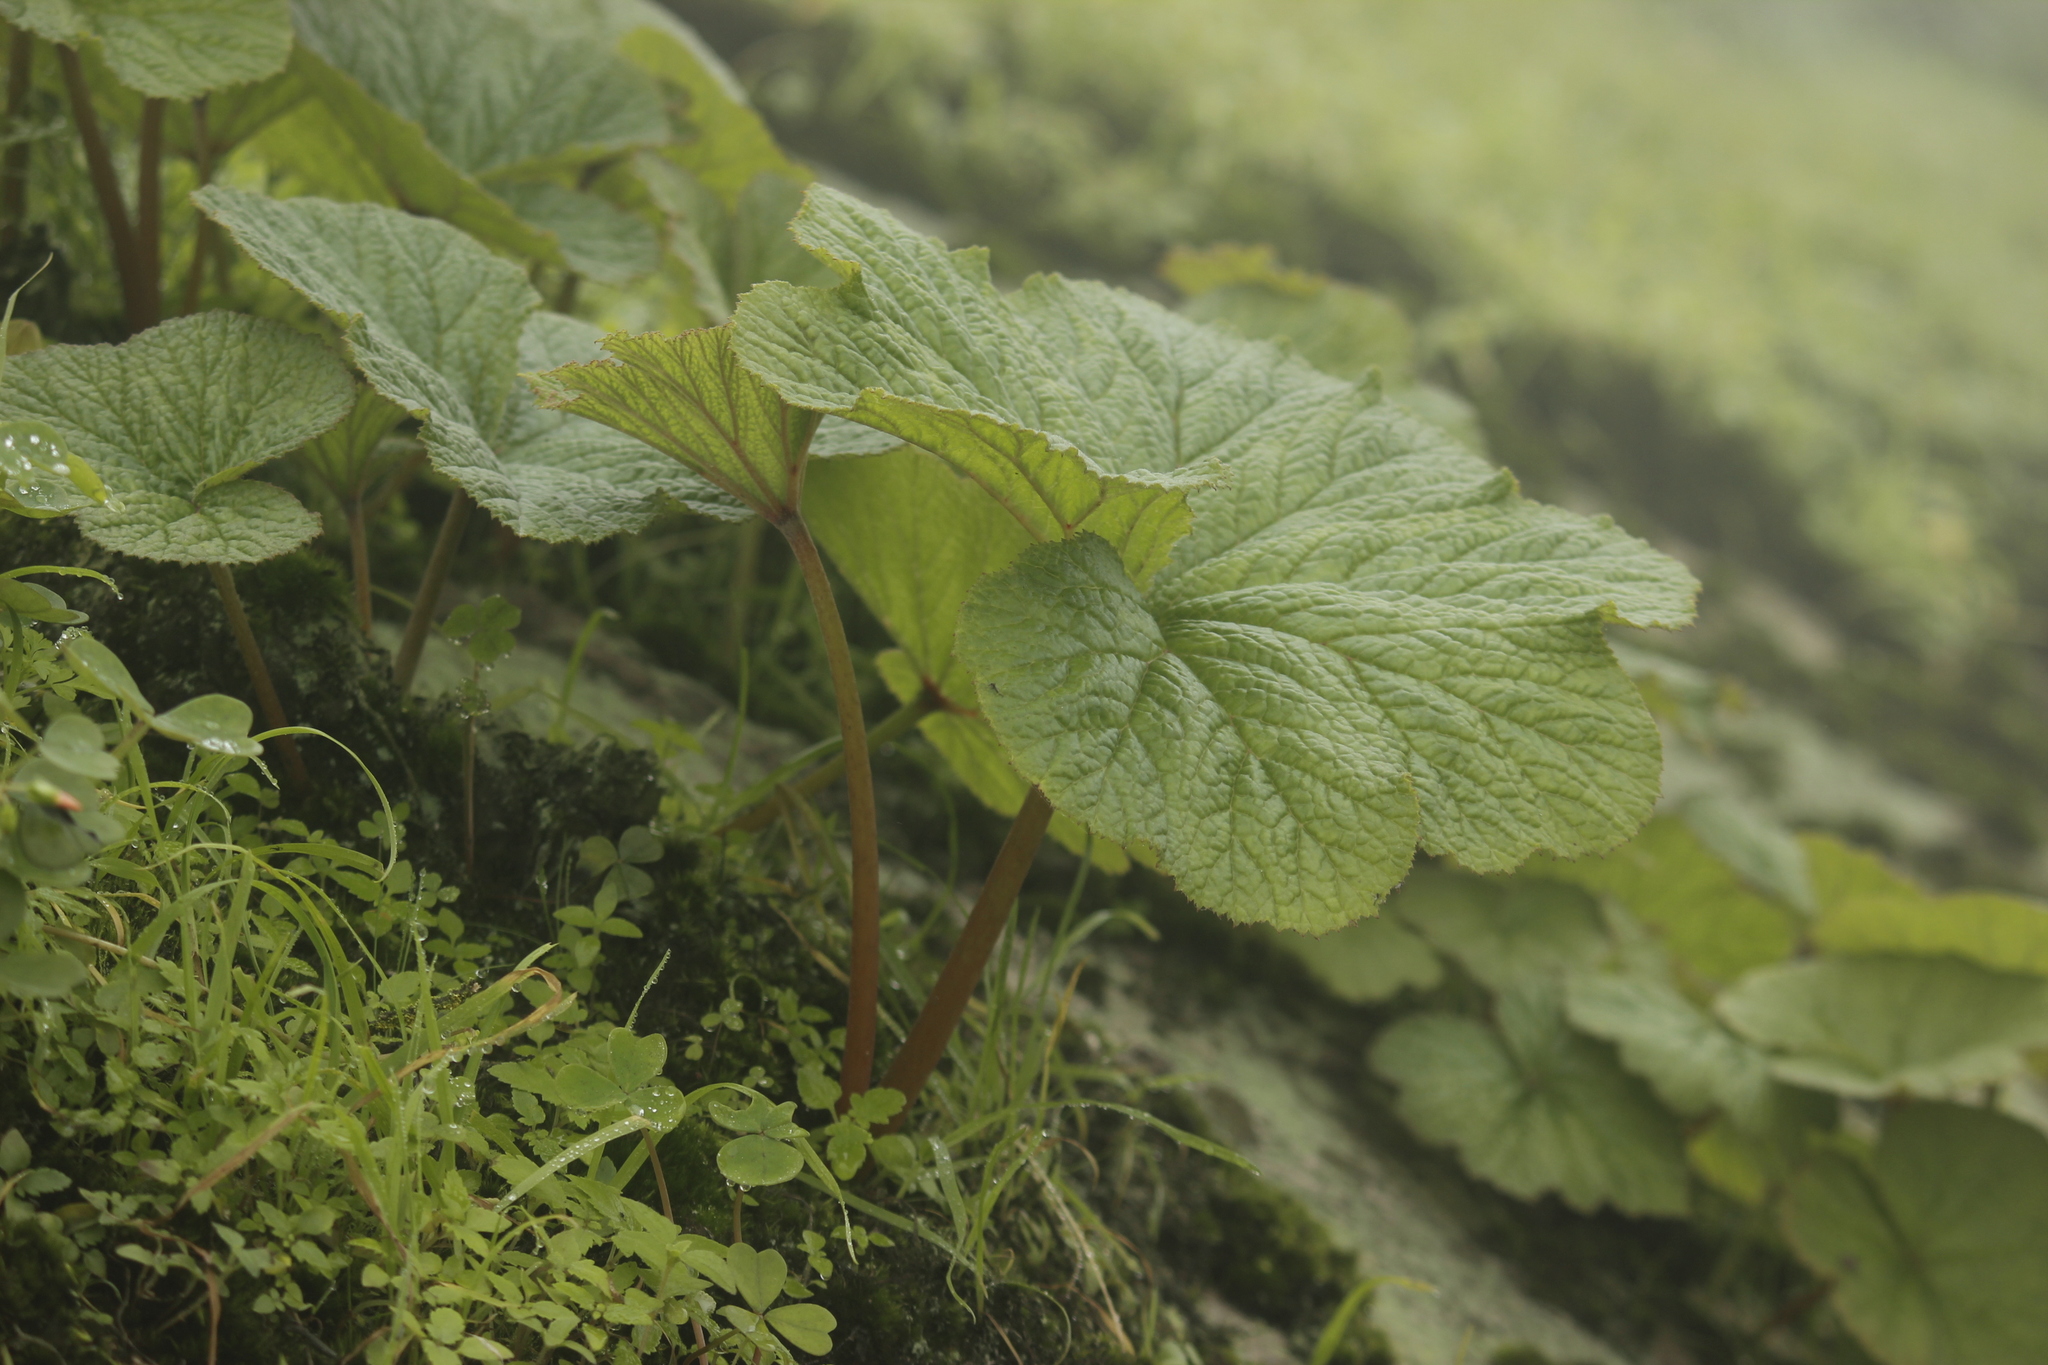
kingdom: Plantae
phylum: Tracheophyta
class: Magnoliopsida
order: Cucurbitales
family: Begoniaceae
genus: Begonia
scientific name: Begonia octopetala
